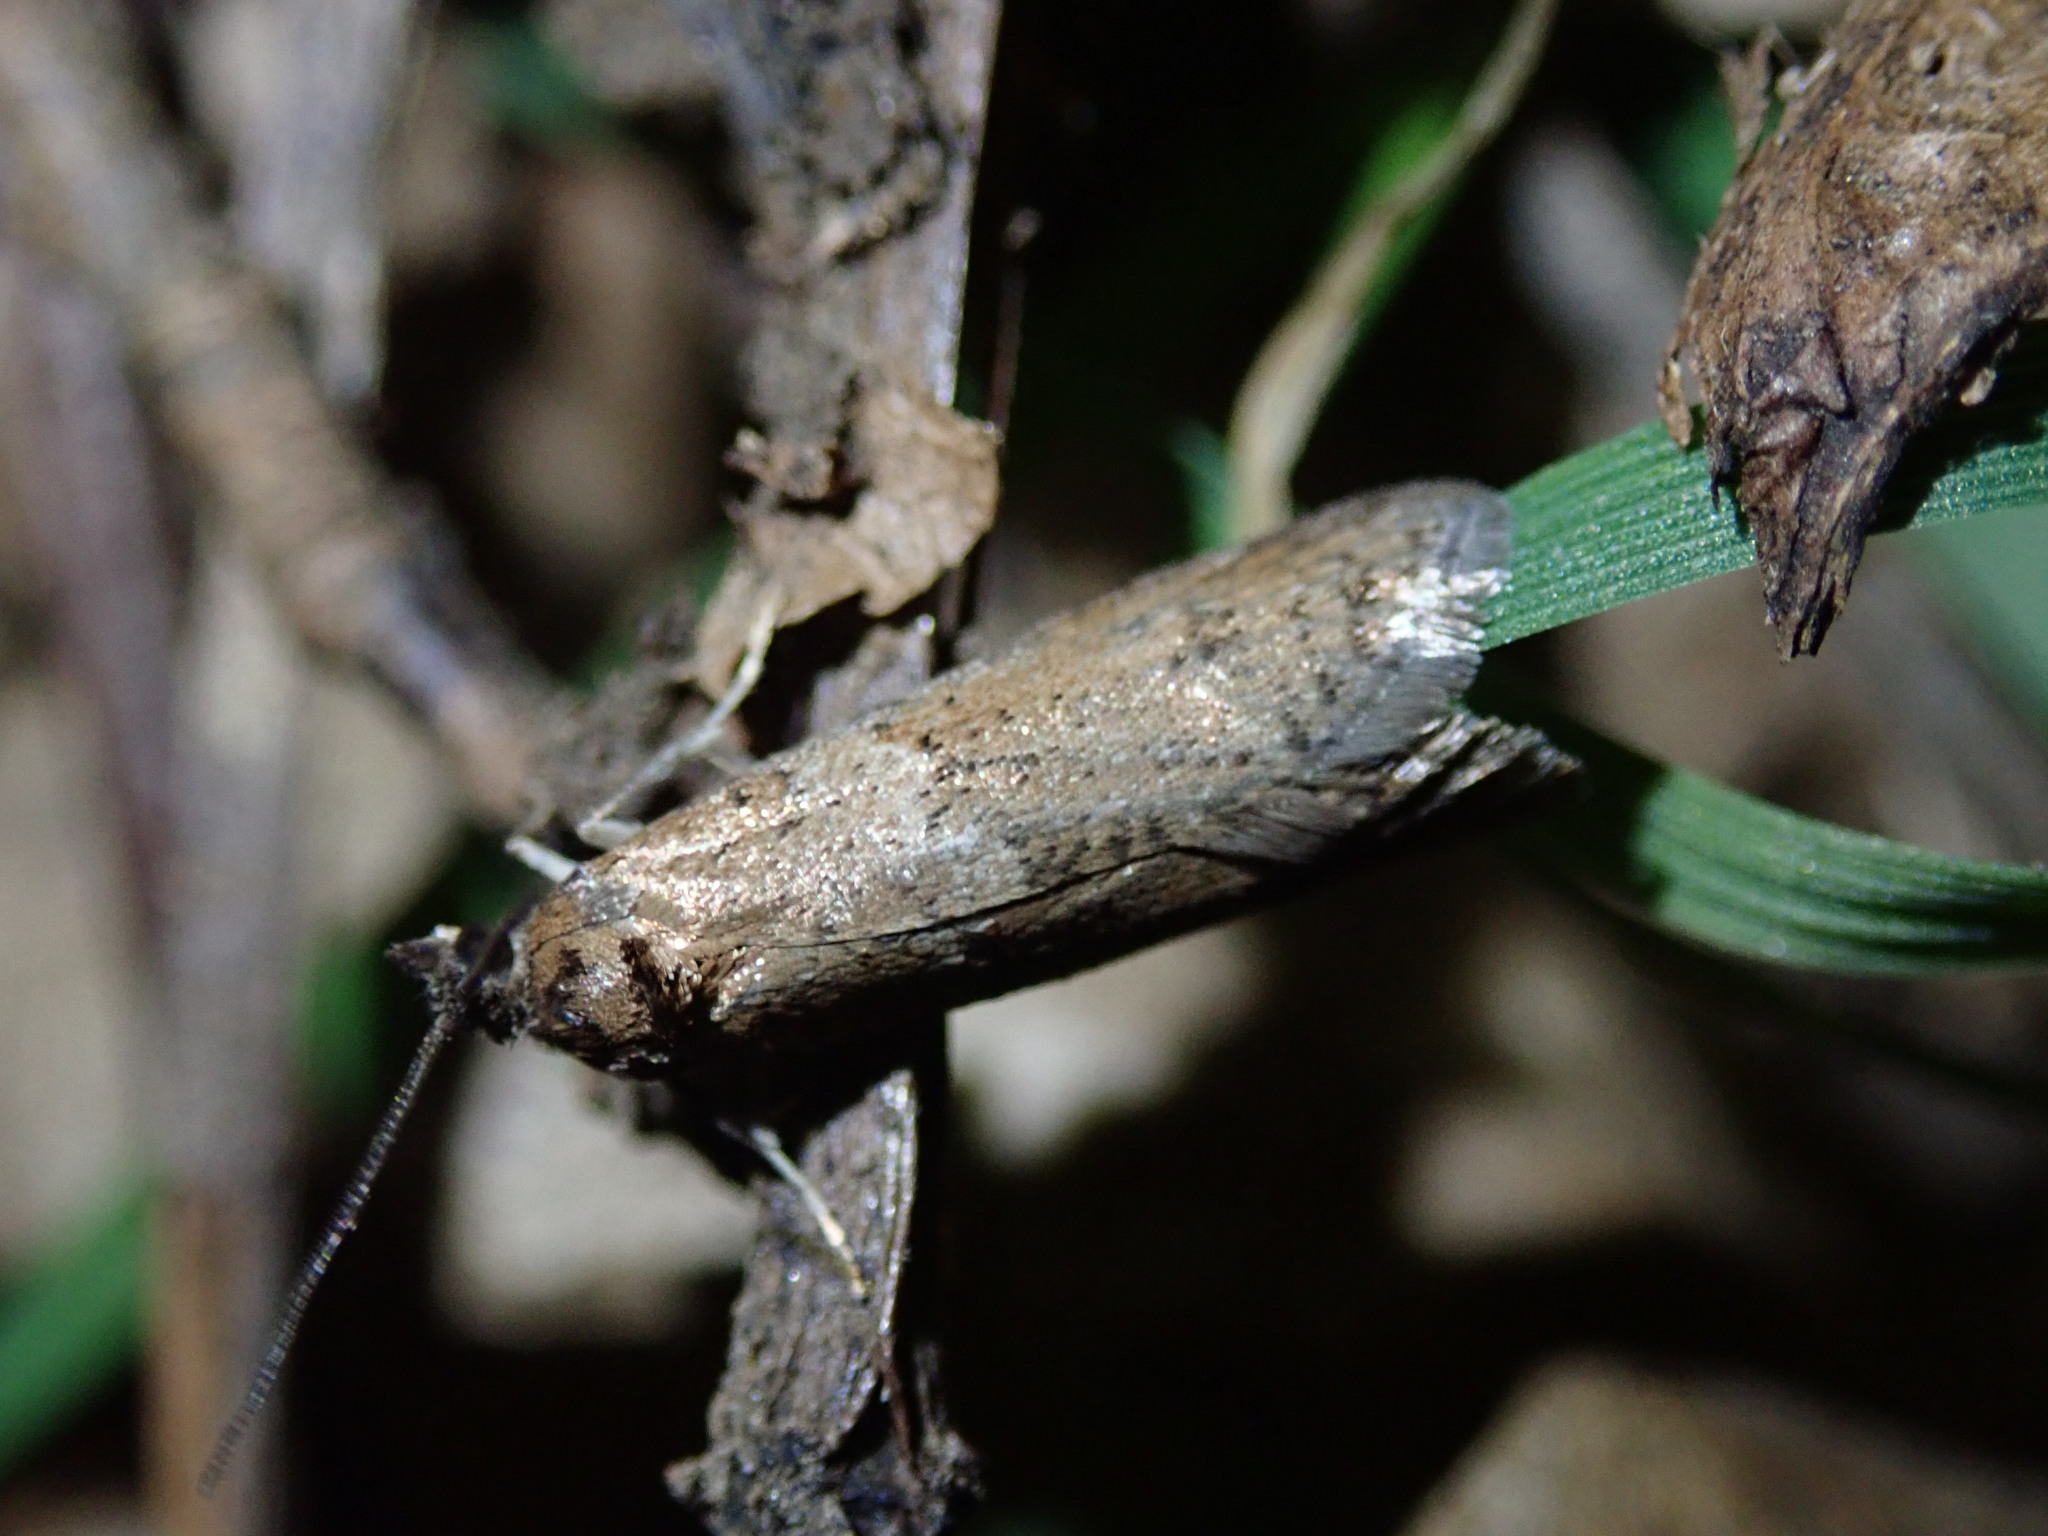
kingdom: Animalia
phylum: Arthropoda
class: Insecta
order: Lepidoptera
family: Tortricidae
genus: Tortricodes
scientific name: Tortricodes alternella
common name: Winter shade
